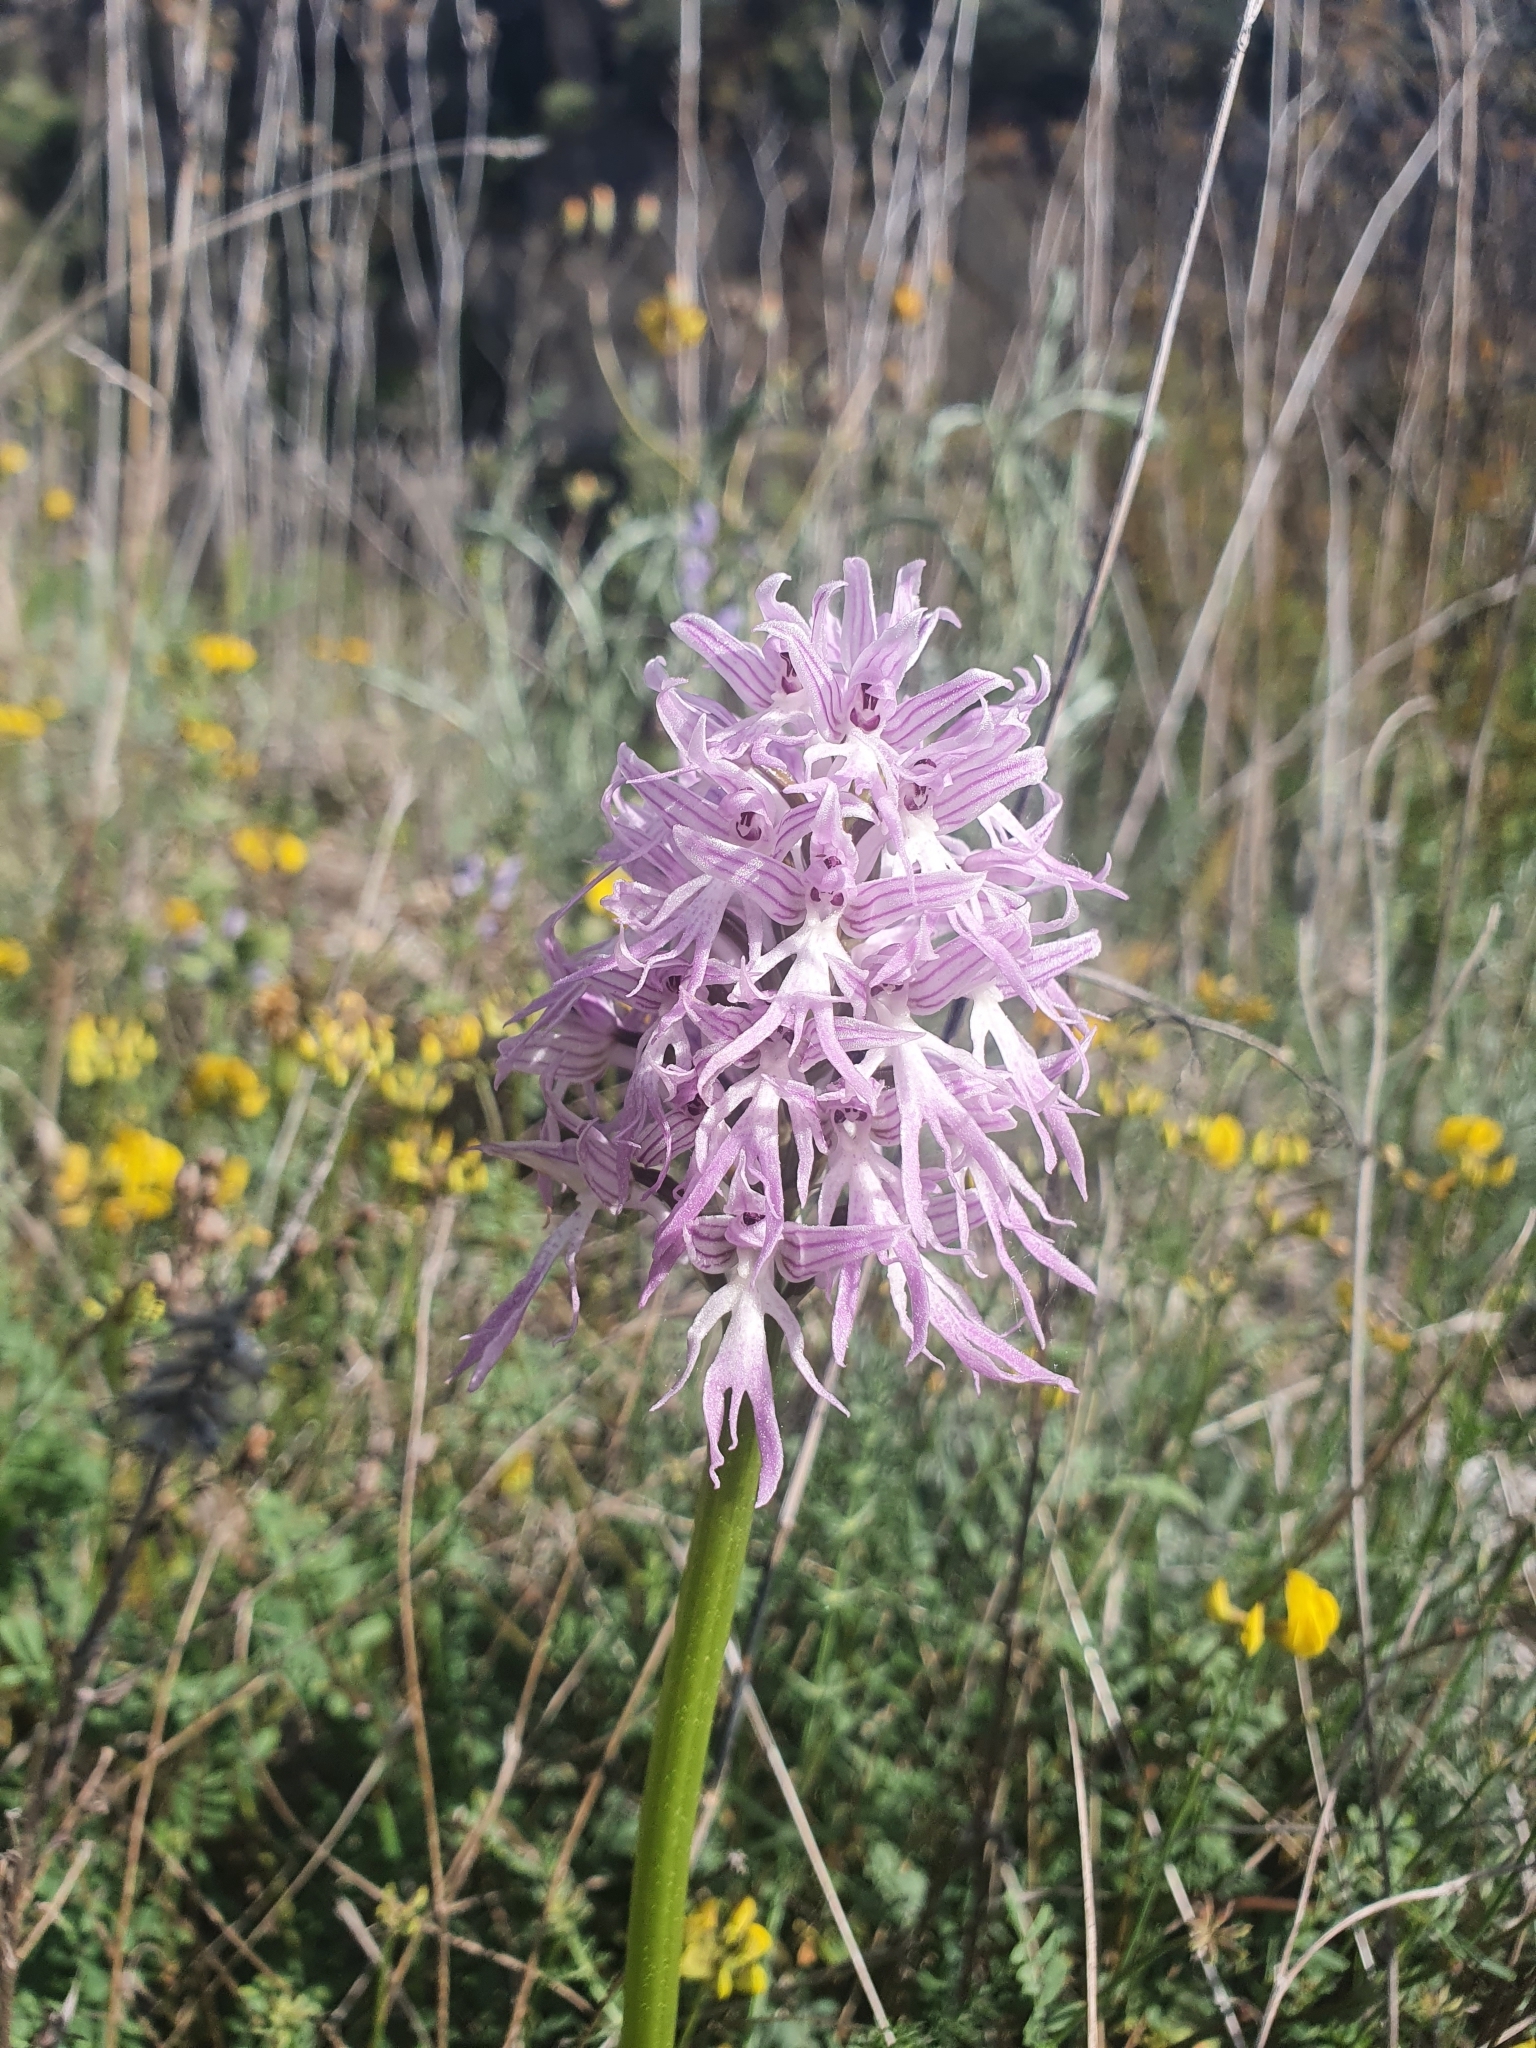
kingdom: Plantae
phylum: Tracheophyta
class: Liliopsida
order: Asparagales
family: Orchidaceae
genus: Orchis
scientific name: Orchis italica
